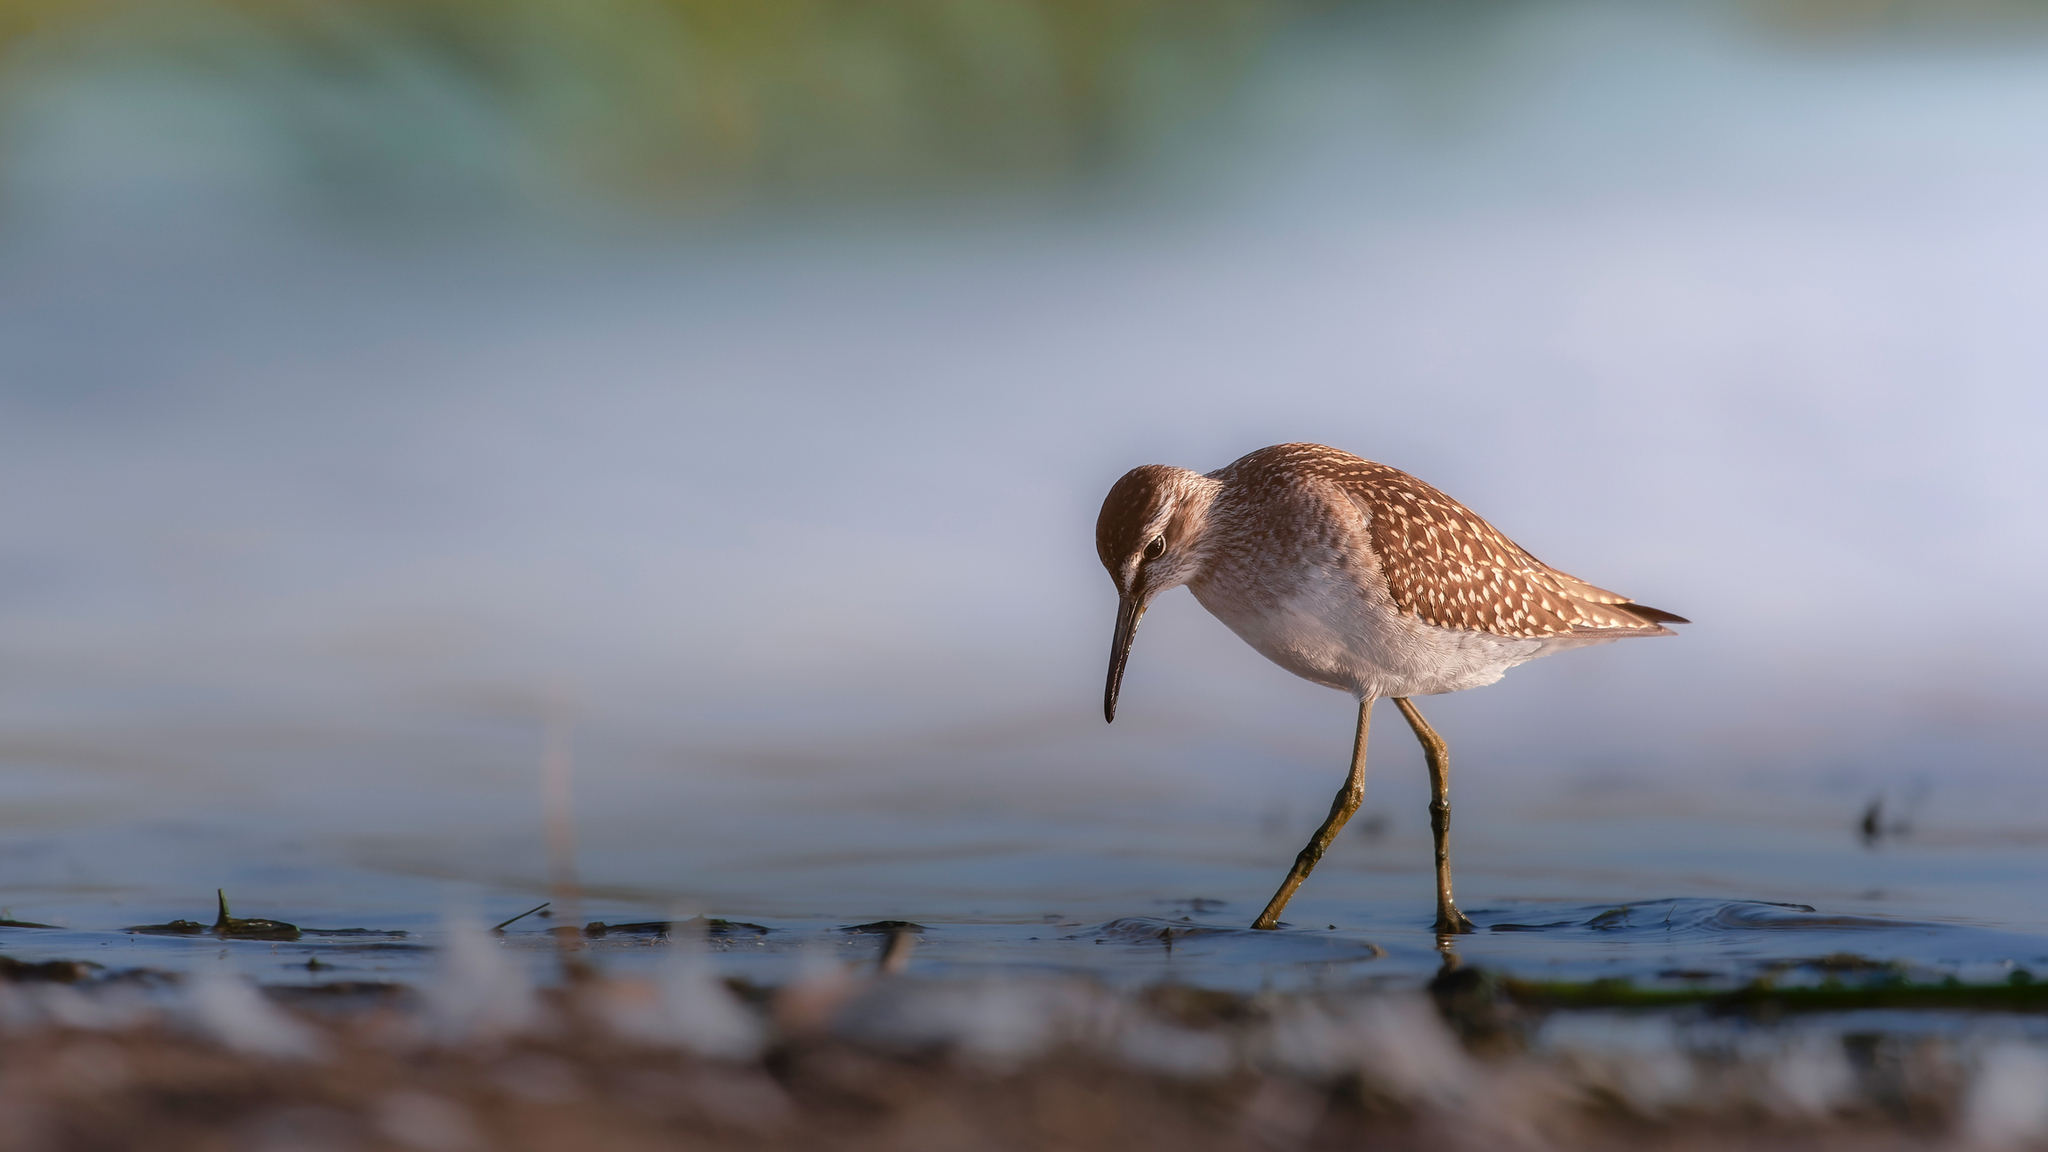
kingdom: Animalia
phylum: Chordata
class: Aves
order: Charadriiformes
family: Scolopacidae
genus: Tringa
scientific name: Tringa glareola
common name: Wood sandpiper
